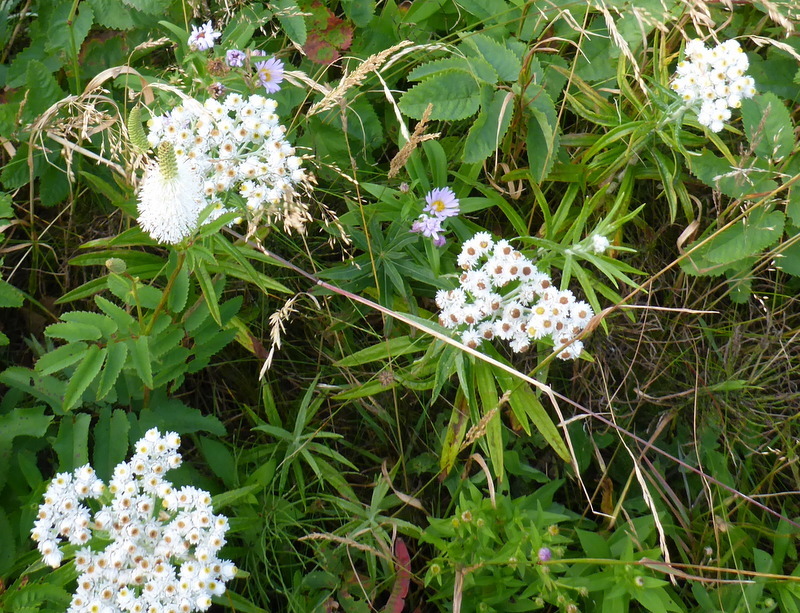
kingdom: Plantae
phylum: Tracheophyta
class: Magnoliopsida
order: Asterales
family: Asteraceae
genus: Anaphalis
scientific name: Anaphalis margaritacea
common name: Pearly everlasting
